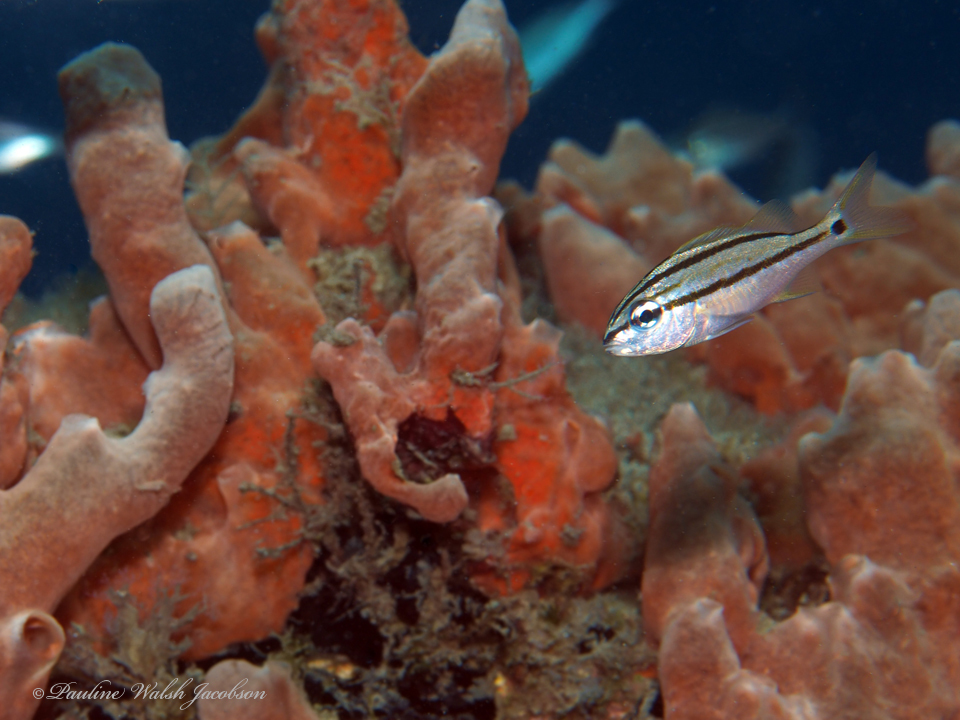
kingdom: Animalia
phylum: Chordata
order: Perciformes
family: Haemulidae
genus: Haemulon
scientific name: Haemulon macrostomum
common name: Spanish grunt
